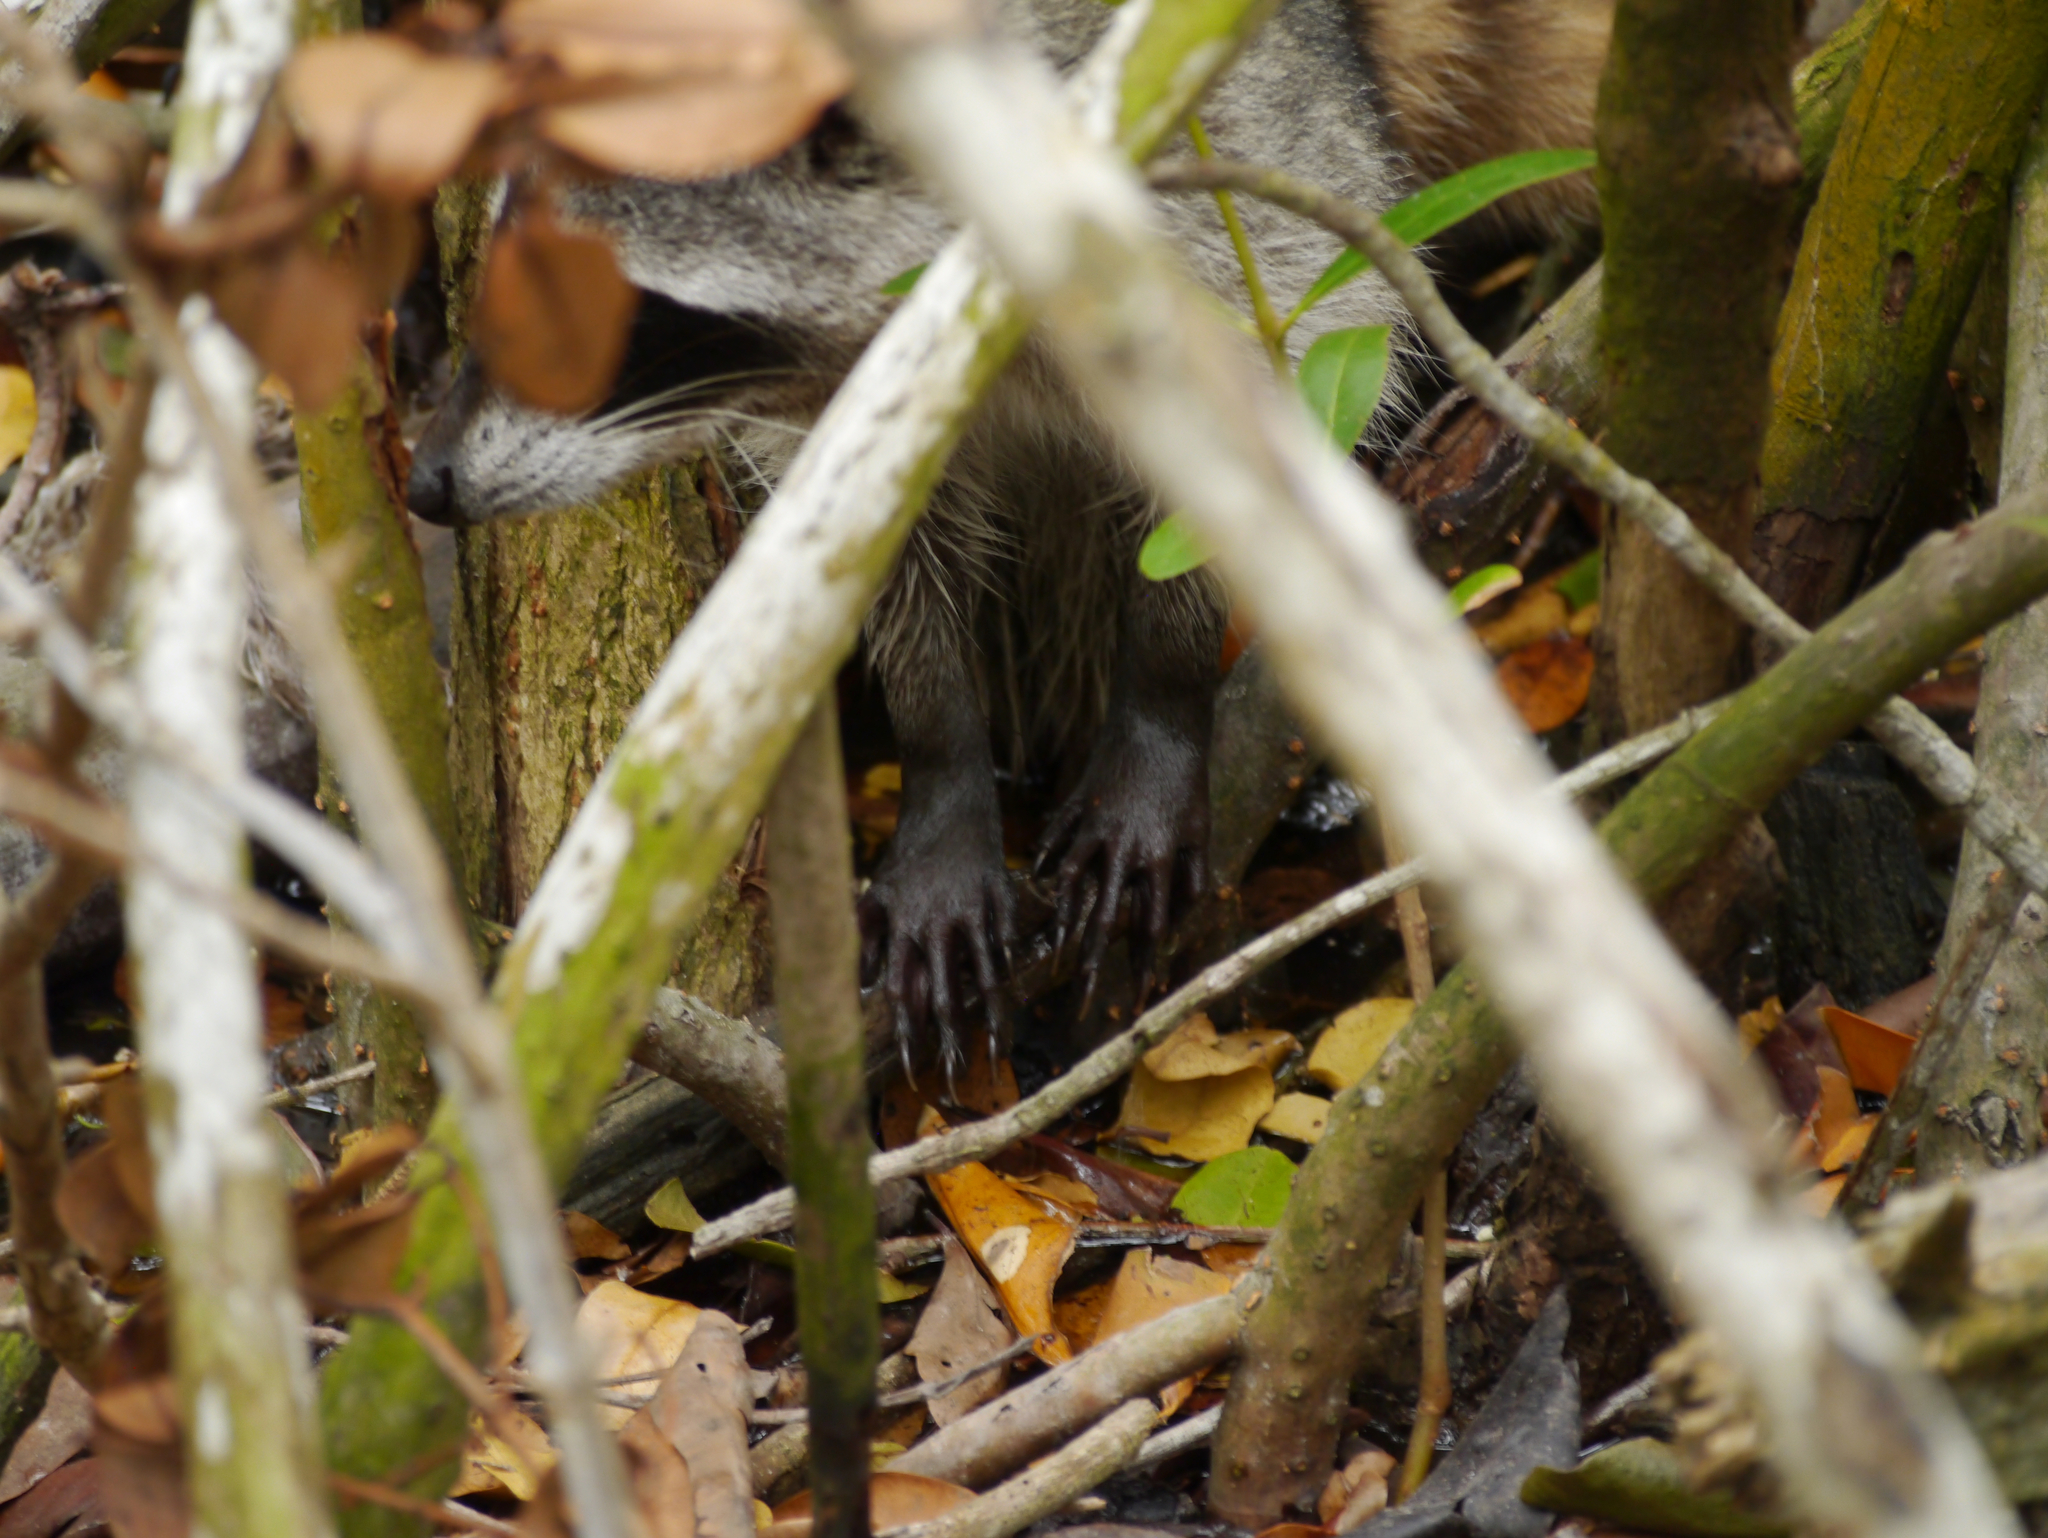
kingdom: Animalia
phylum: Chordata
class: Mammalia
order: Carnivora
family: Procyonidae
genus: Procyon
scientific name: Procyon lotor
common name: Raccoon
